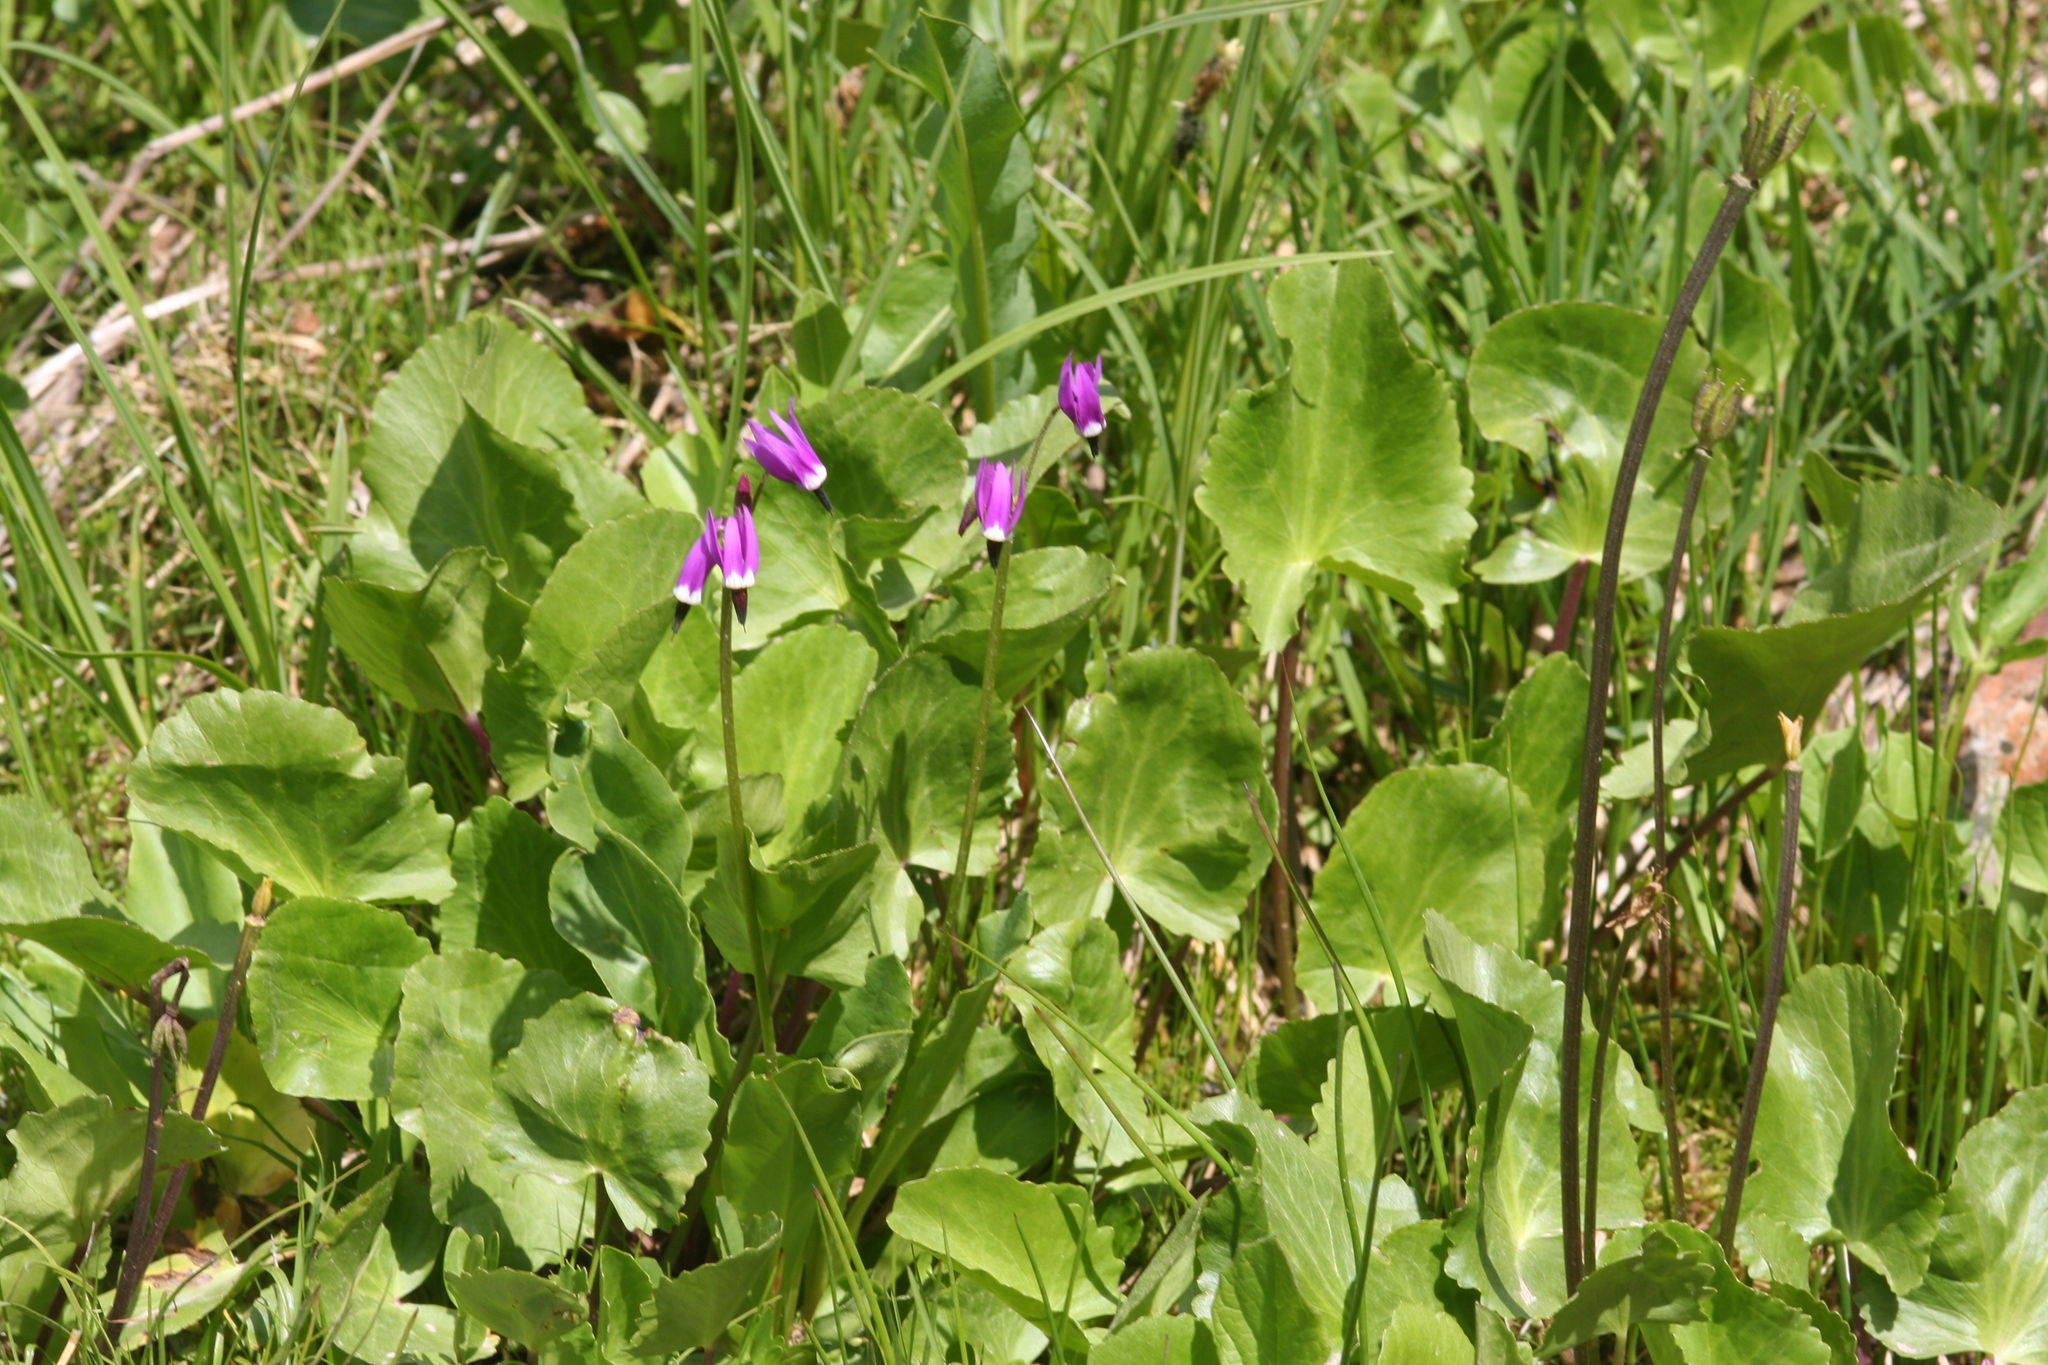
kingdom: Plantae
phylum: Tracheophyta
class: Magnoliopsida
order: Ericales
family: Primulaceae
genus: Dodecatheon
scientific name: Dodecatheon jeffreyanum
